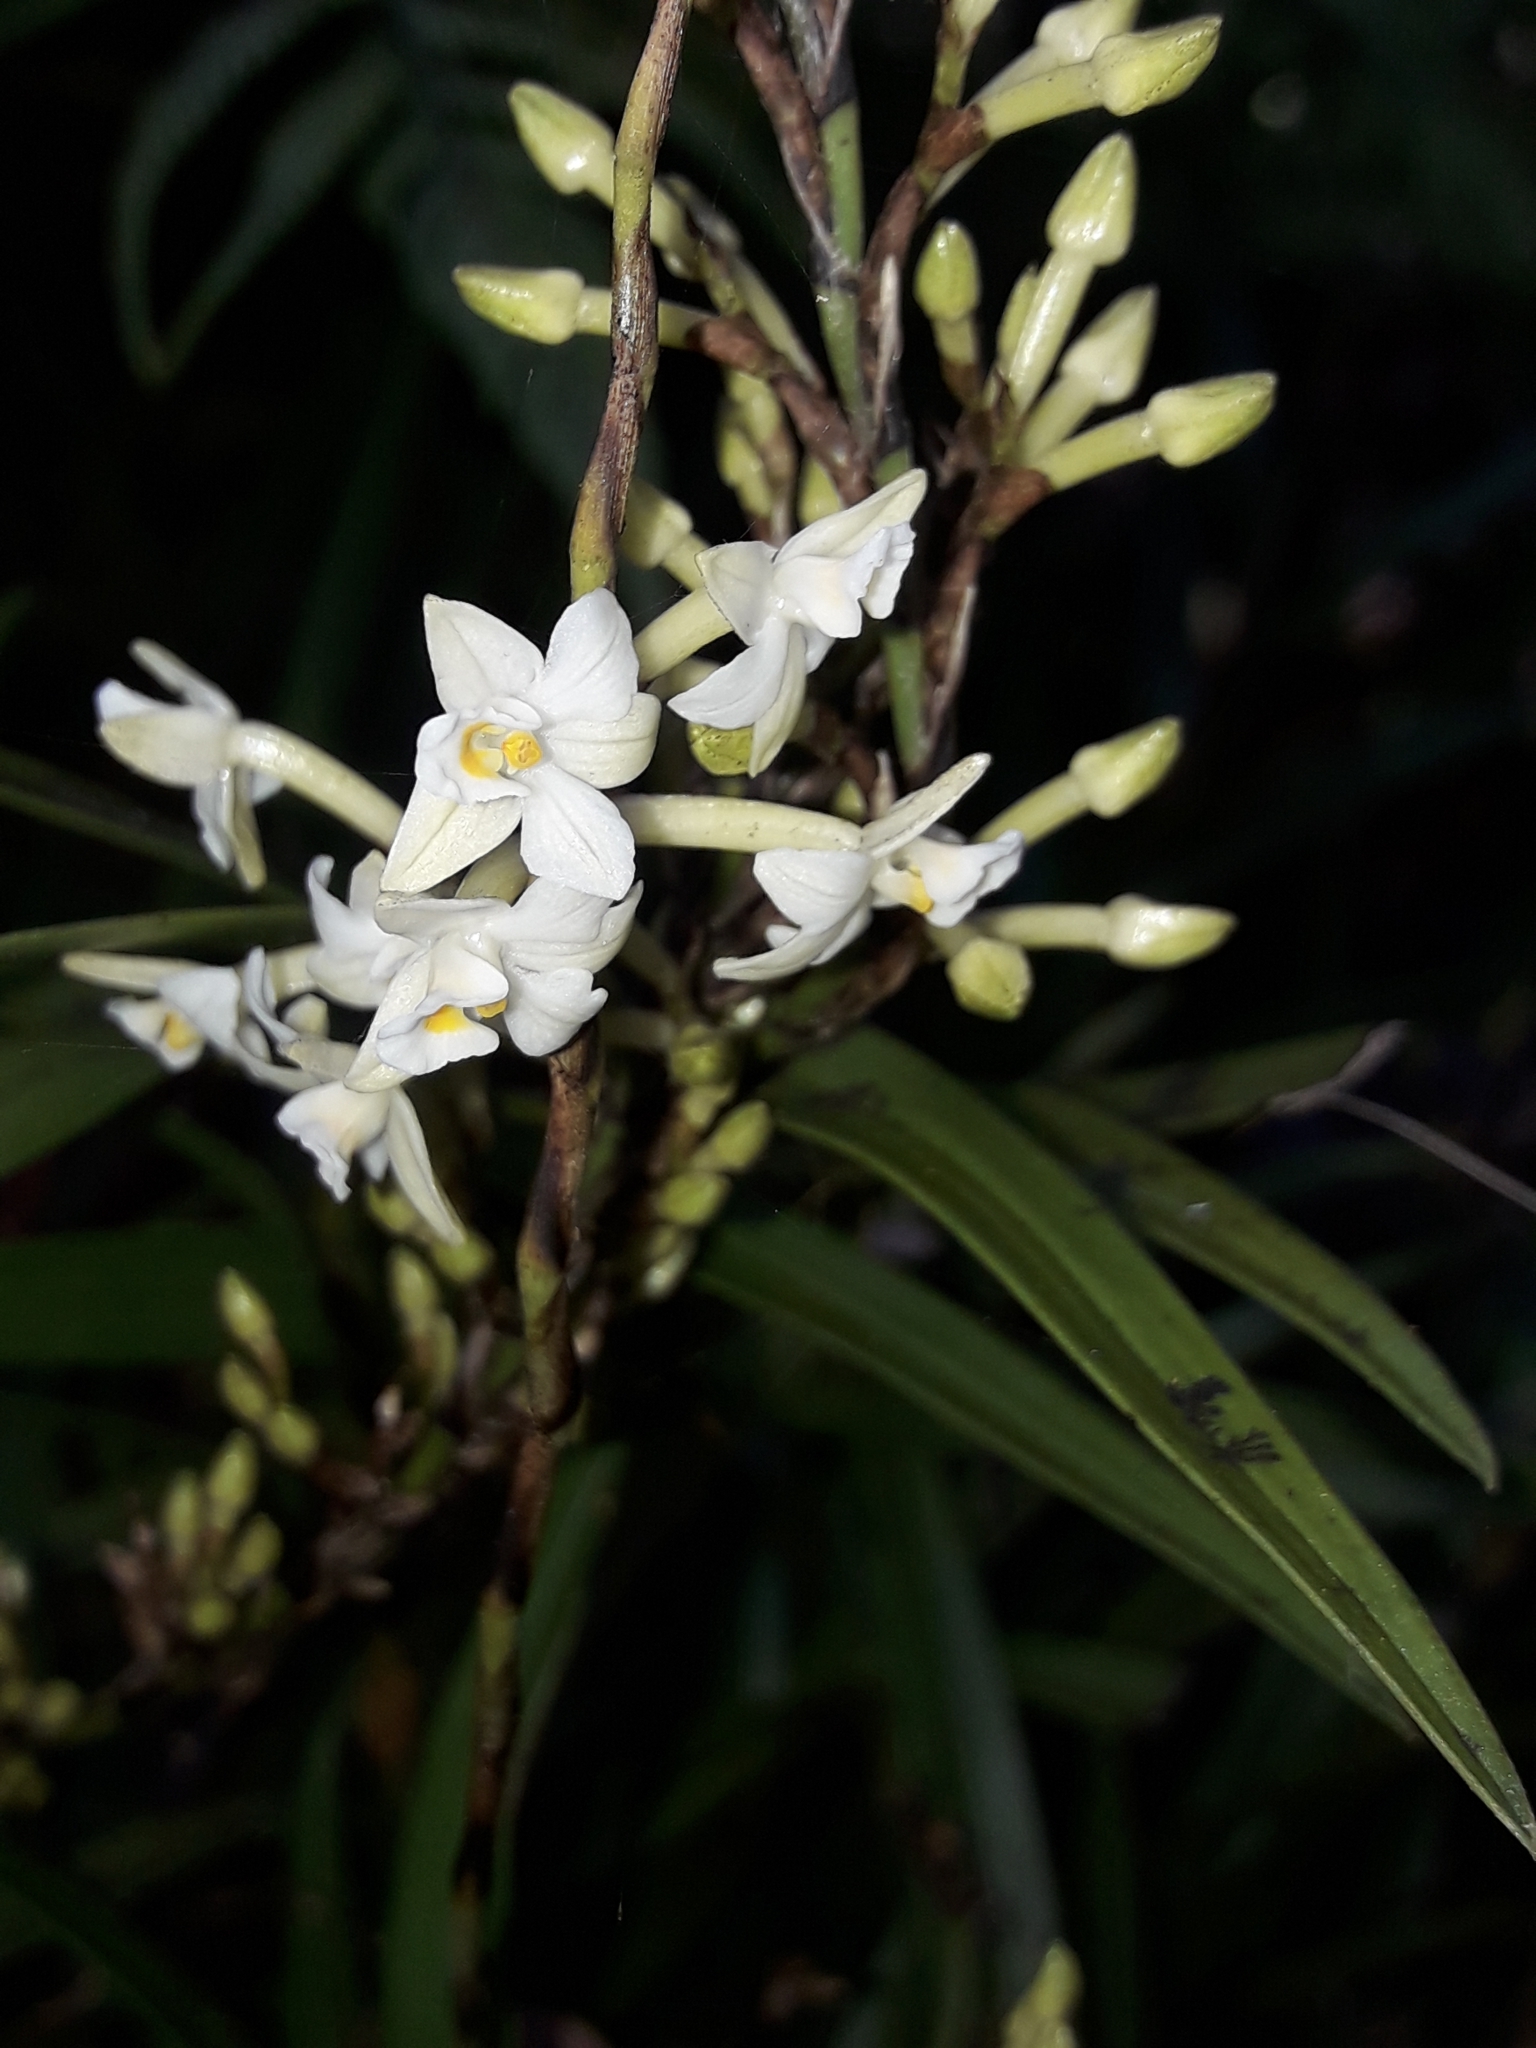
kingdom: Plantae
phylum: Tracheophyta
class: Liliopsida
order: Asparagales
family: Orchidaceae
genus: Earina
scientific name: Earina autumnalis
